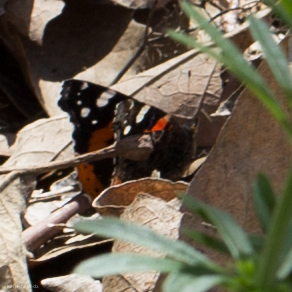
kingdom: Animalia
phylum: Arthropoda
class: Insecta
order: Lepidoptera
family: Nymphalidae
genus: Vanessa
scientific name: Vanessa atalanta
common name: Red admiral
